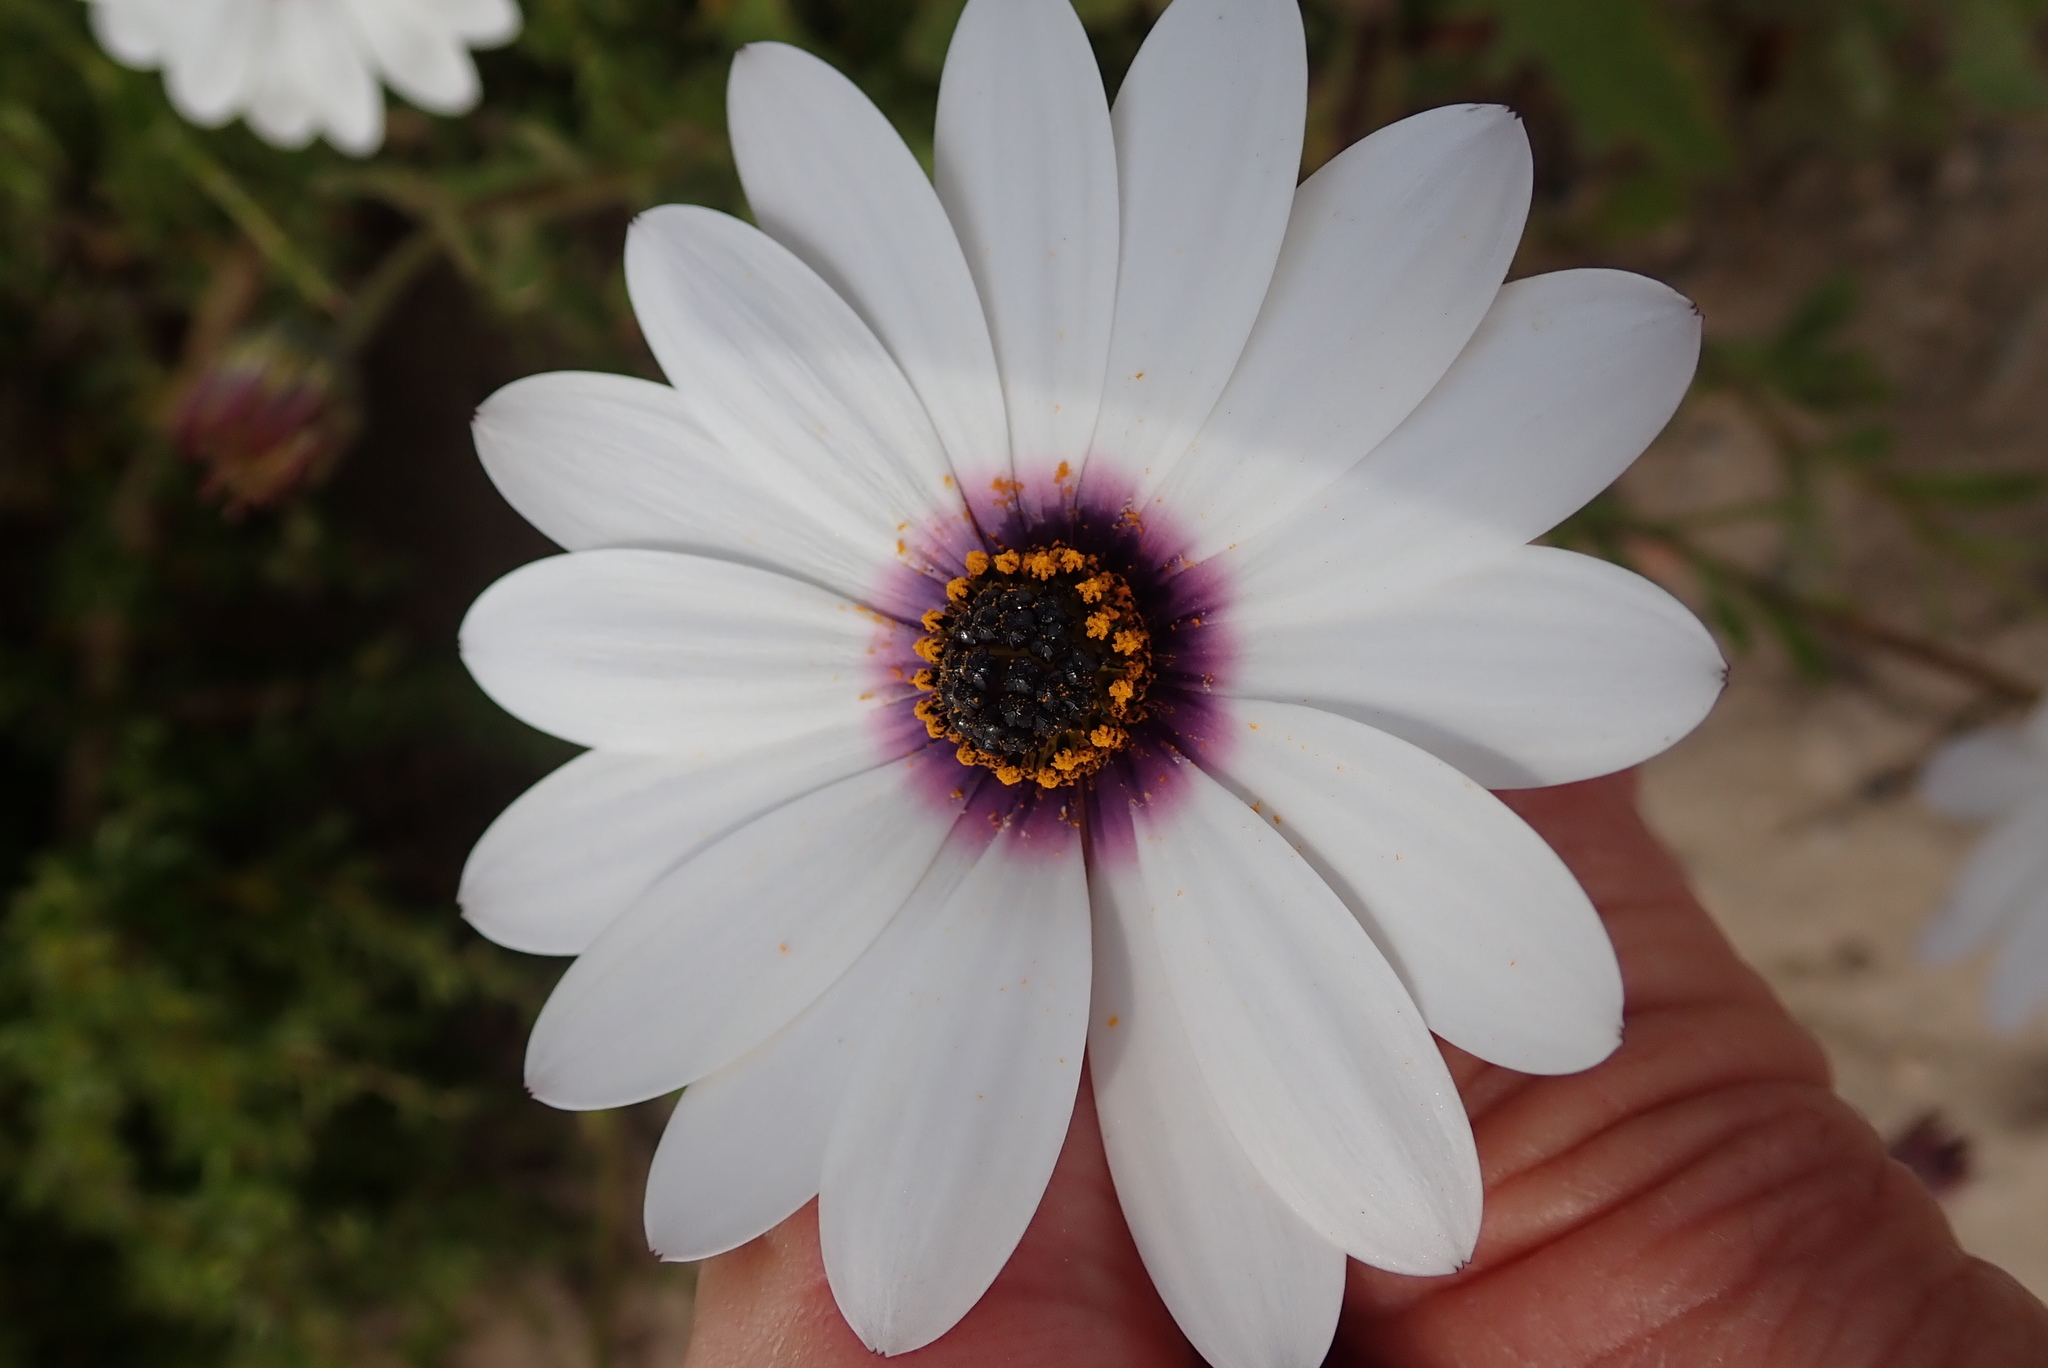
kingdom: Plantae
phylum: Tracheophyta
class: Magnoliopsida
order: Asterales
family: Asteraceae
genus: Dimorphotheca
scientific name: Dimorphotheca pluvialis
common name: Weather prophet
